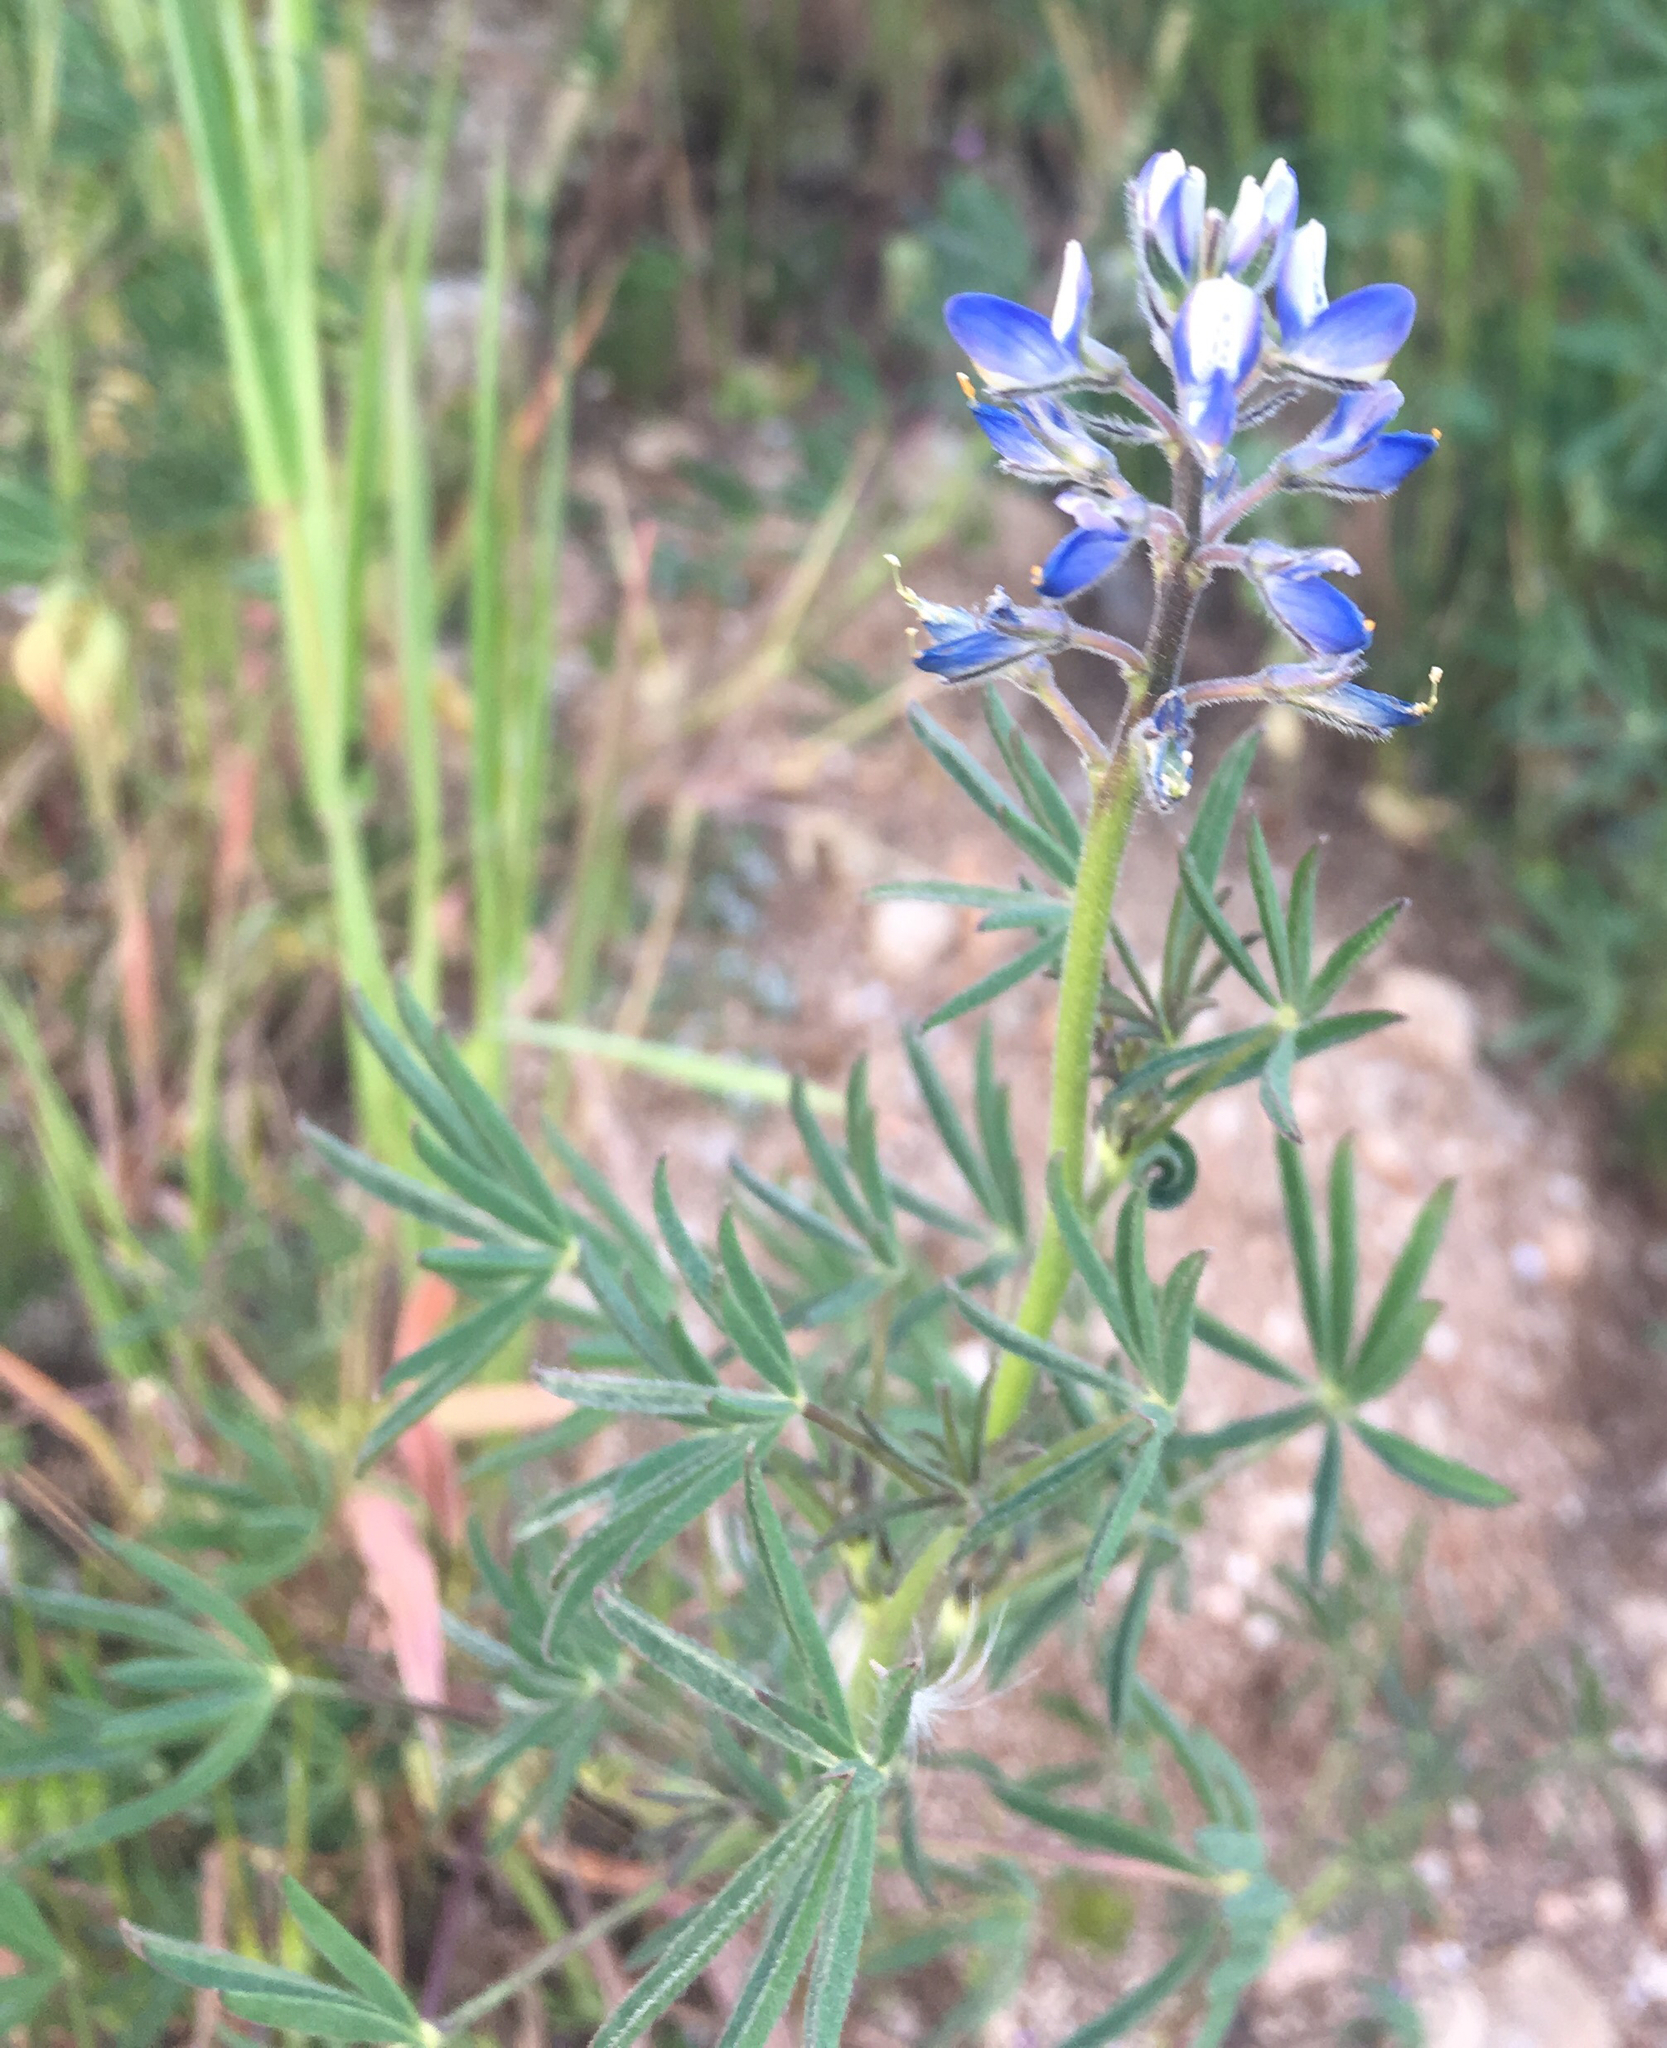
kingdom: Plantae
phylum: Tracheophyta
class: Magnoliopsida
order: Fabales
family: Fabaceae
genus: Lupinus
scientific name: Lupinus bicolor
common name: Miniature lupine
